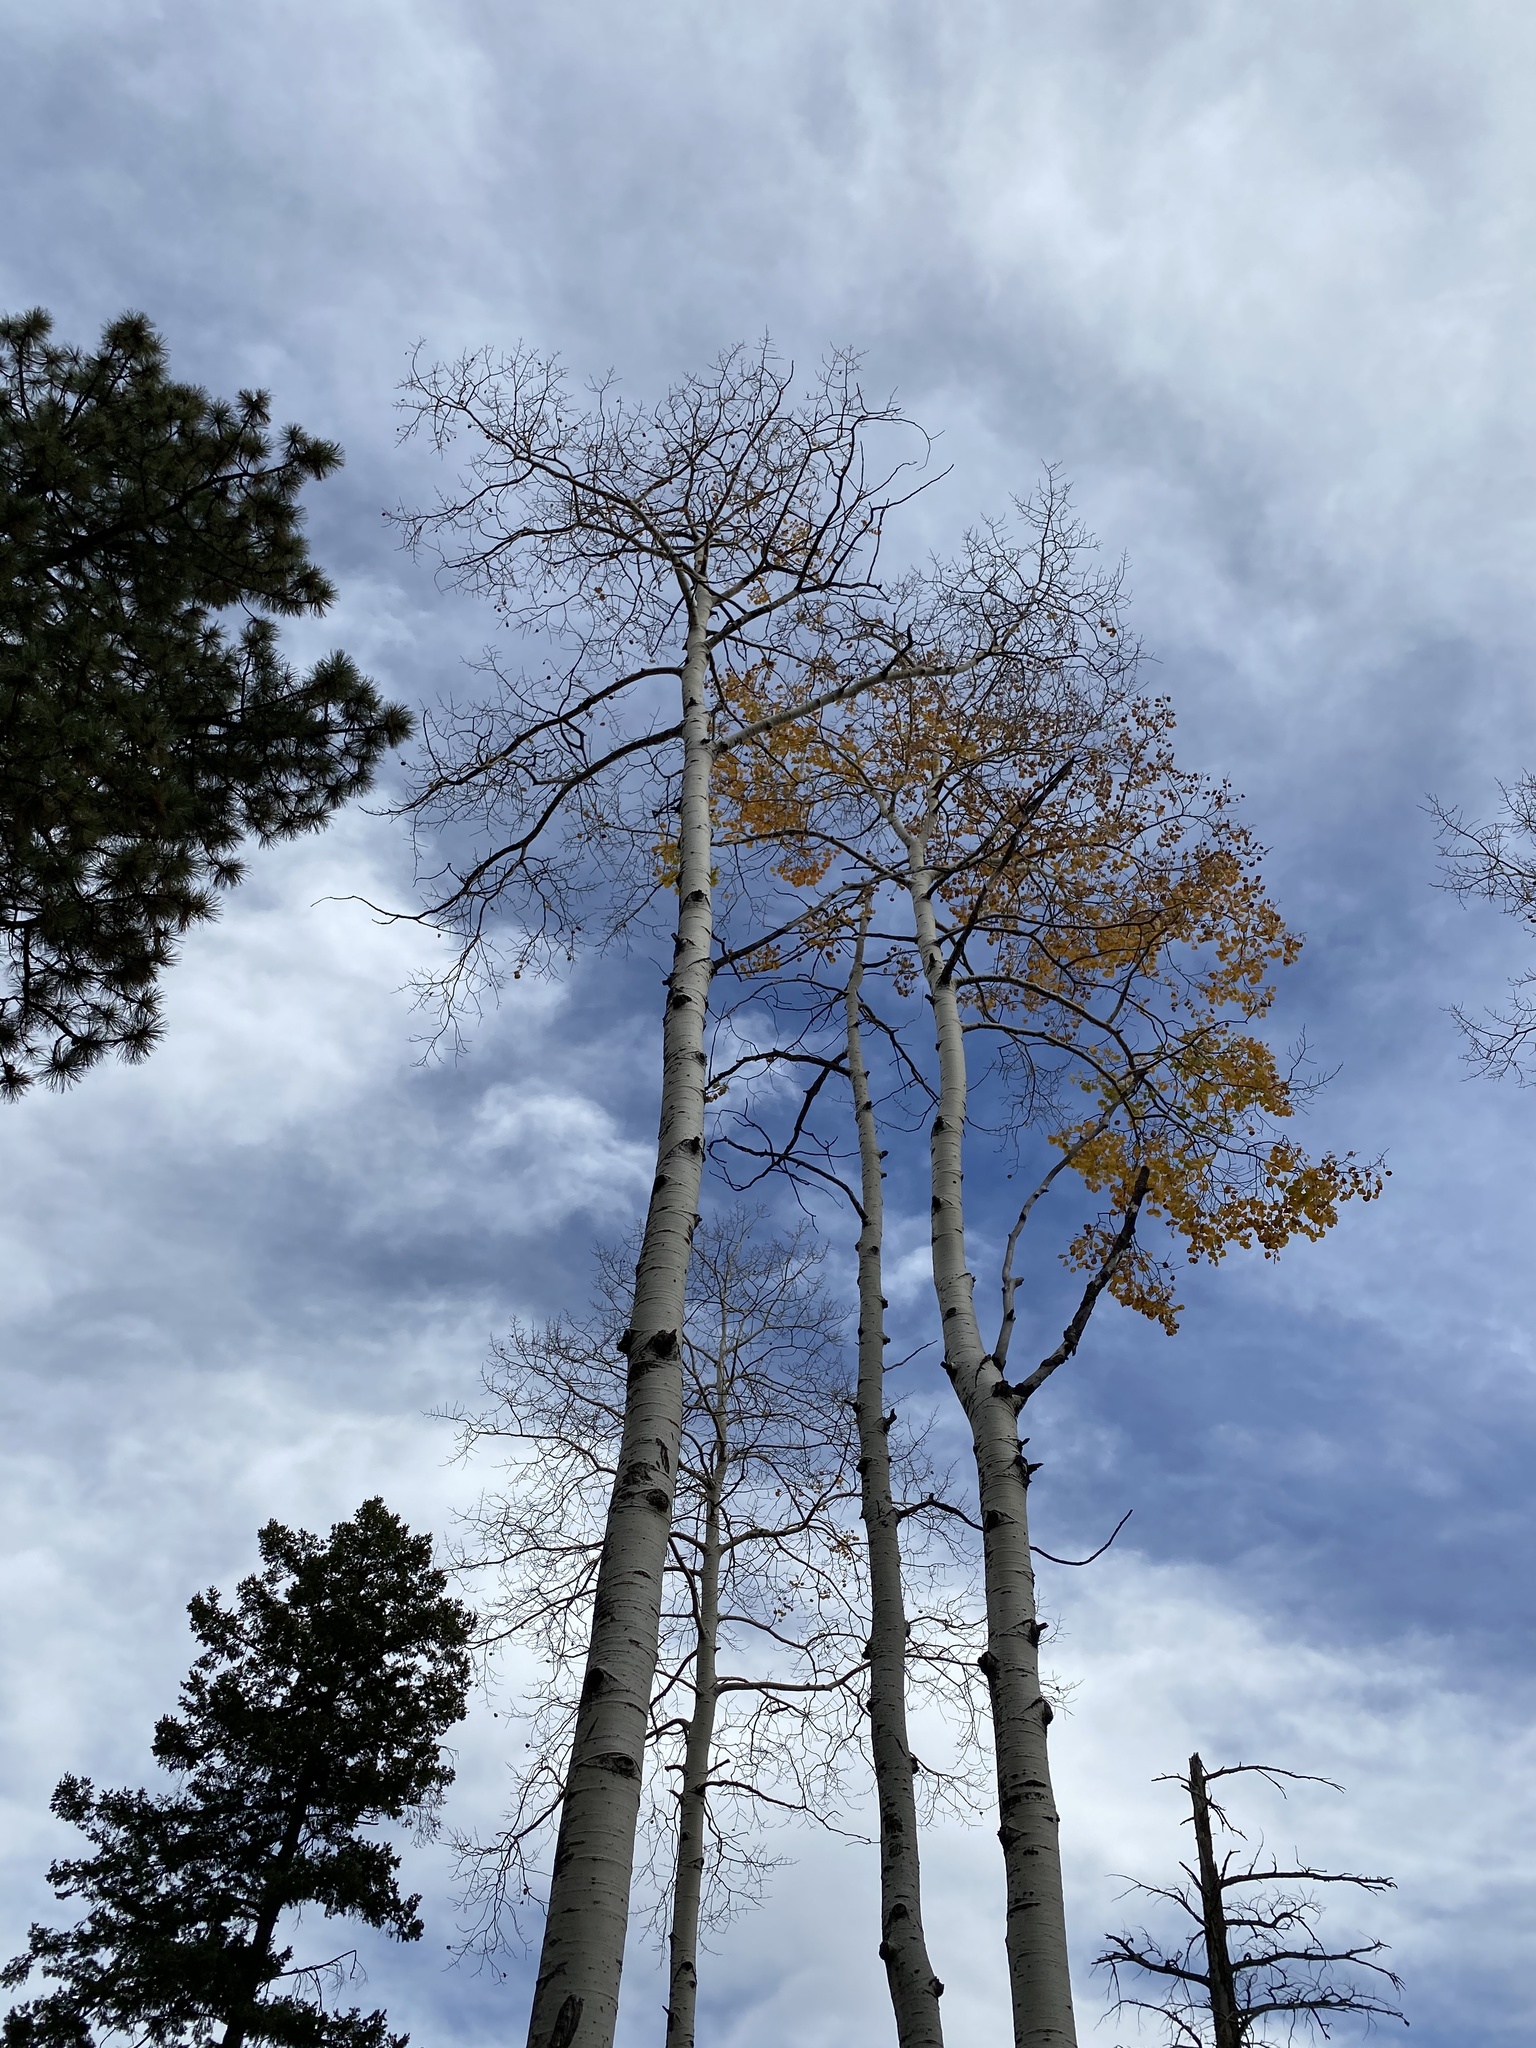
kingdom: Plantae
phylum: Tracheophyta
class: Magnoliopsida
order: Malpighiales
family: Salicaceae
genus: Populus
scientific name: Populus tremuloides
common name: Quaking aspen
